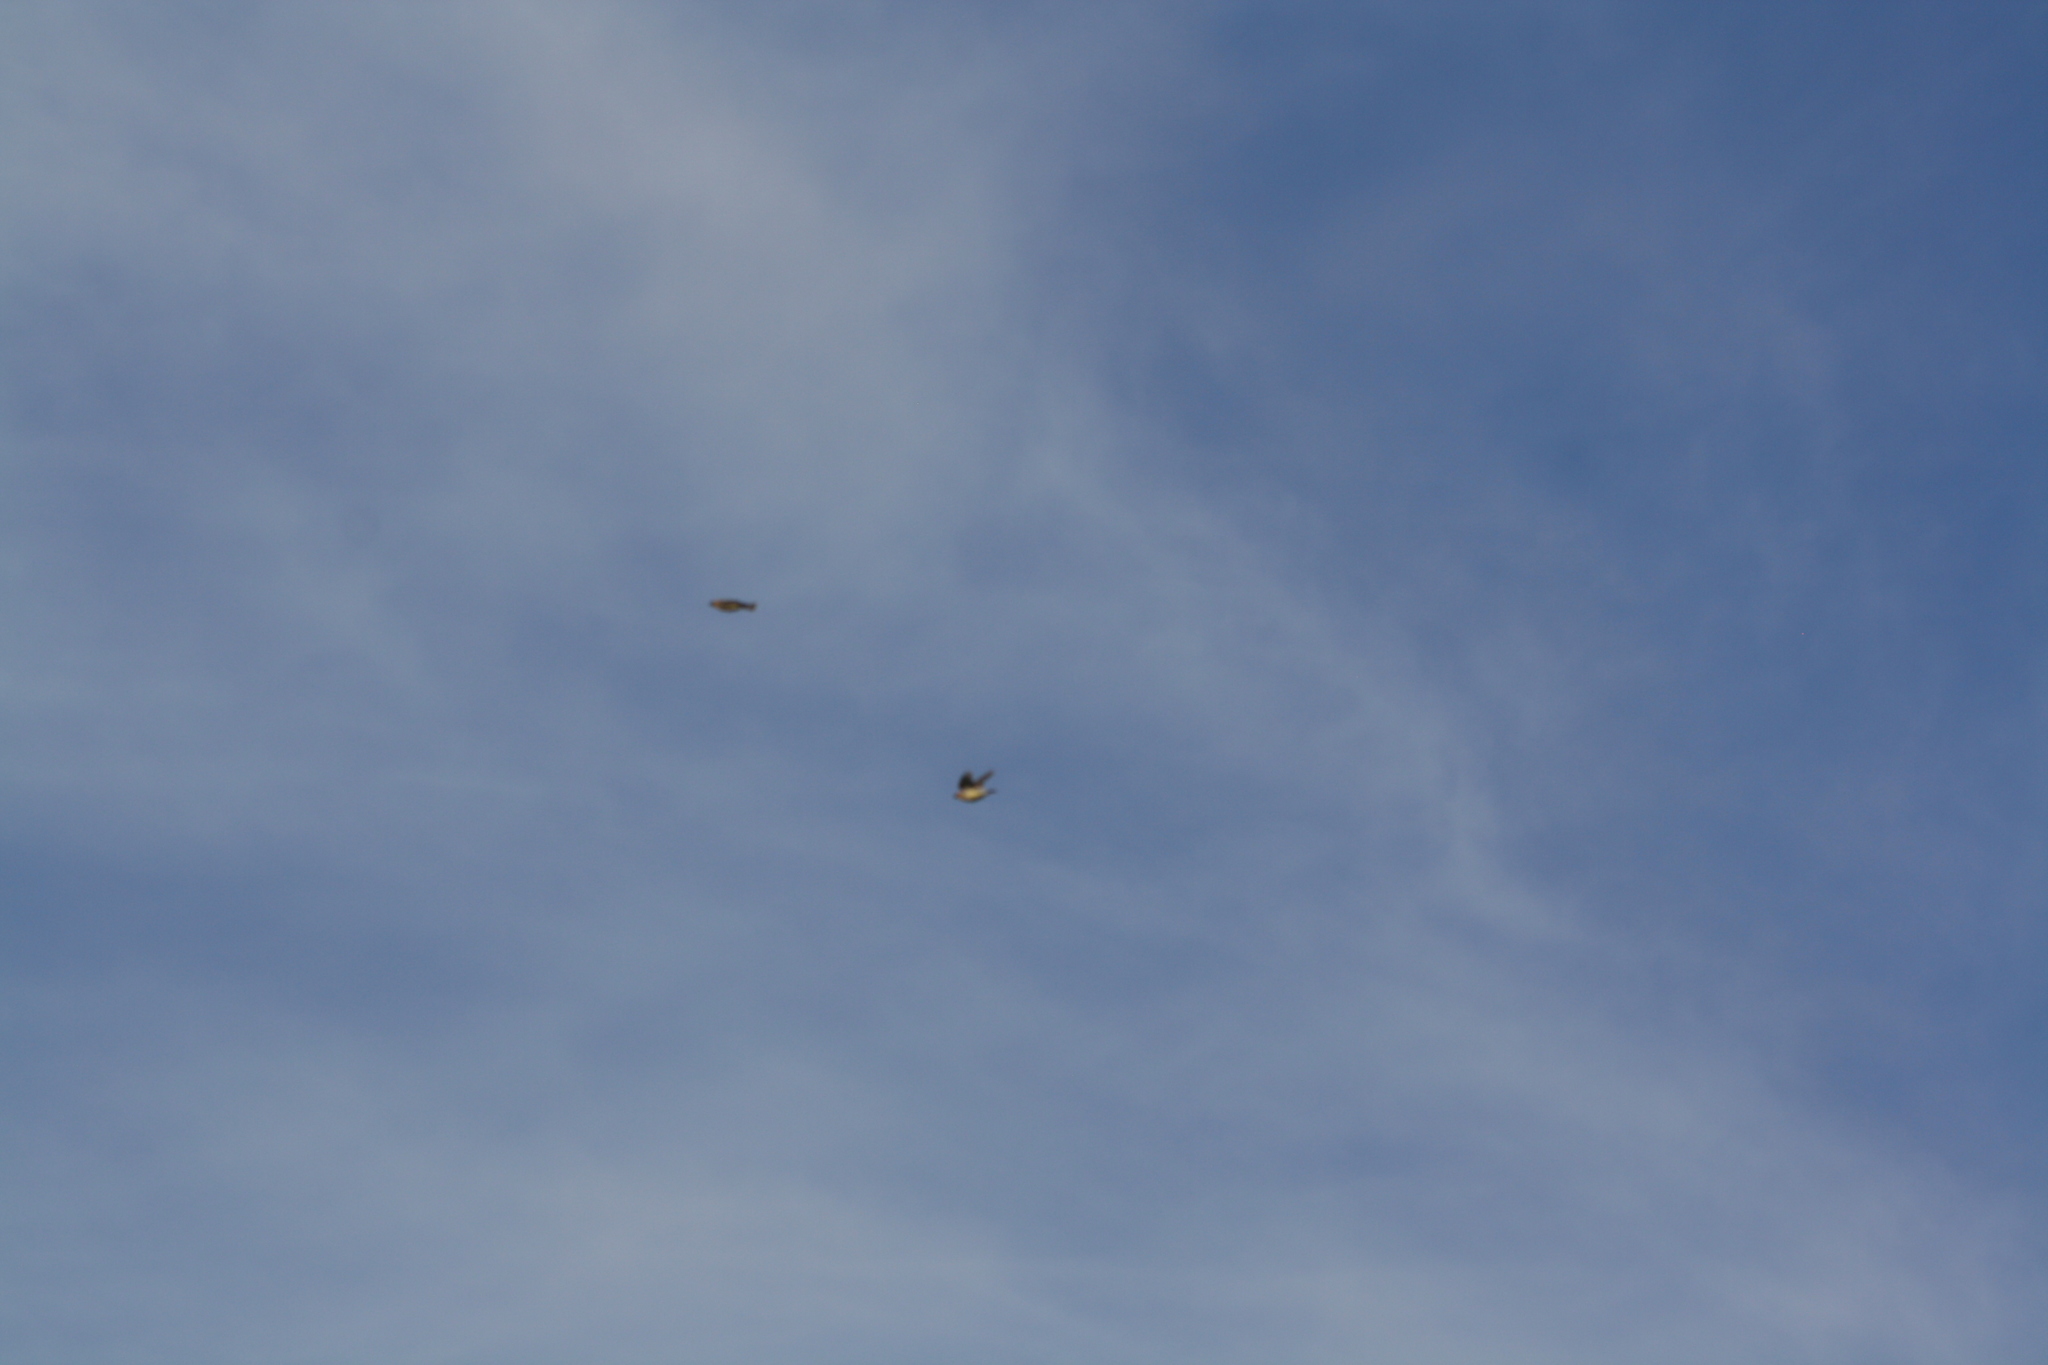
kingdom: Animalia
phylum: Chordata
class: Aves
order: Passeriformes
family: Bombycillidae
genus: Bombycilla
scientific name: Bombycilla cedrorum
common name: Cedar waxwing
